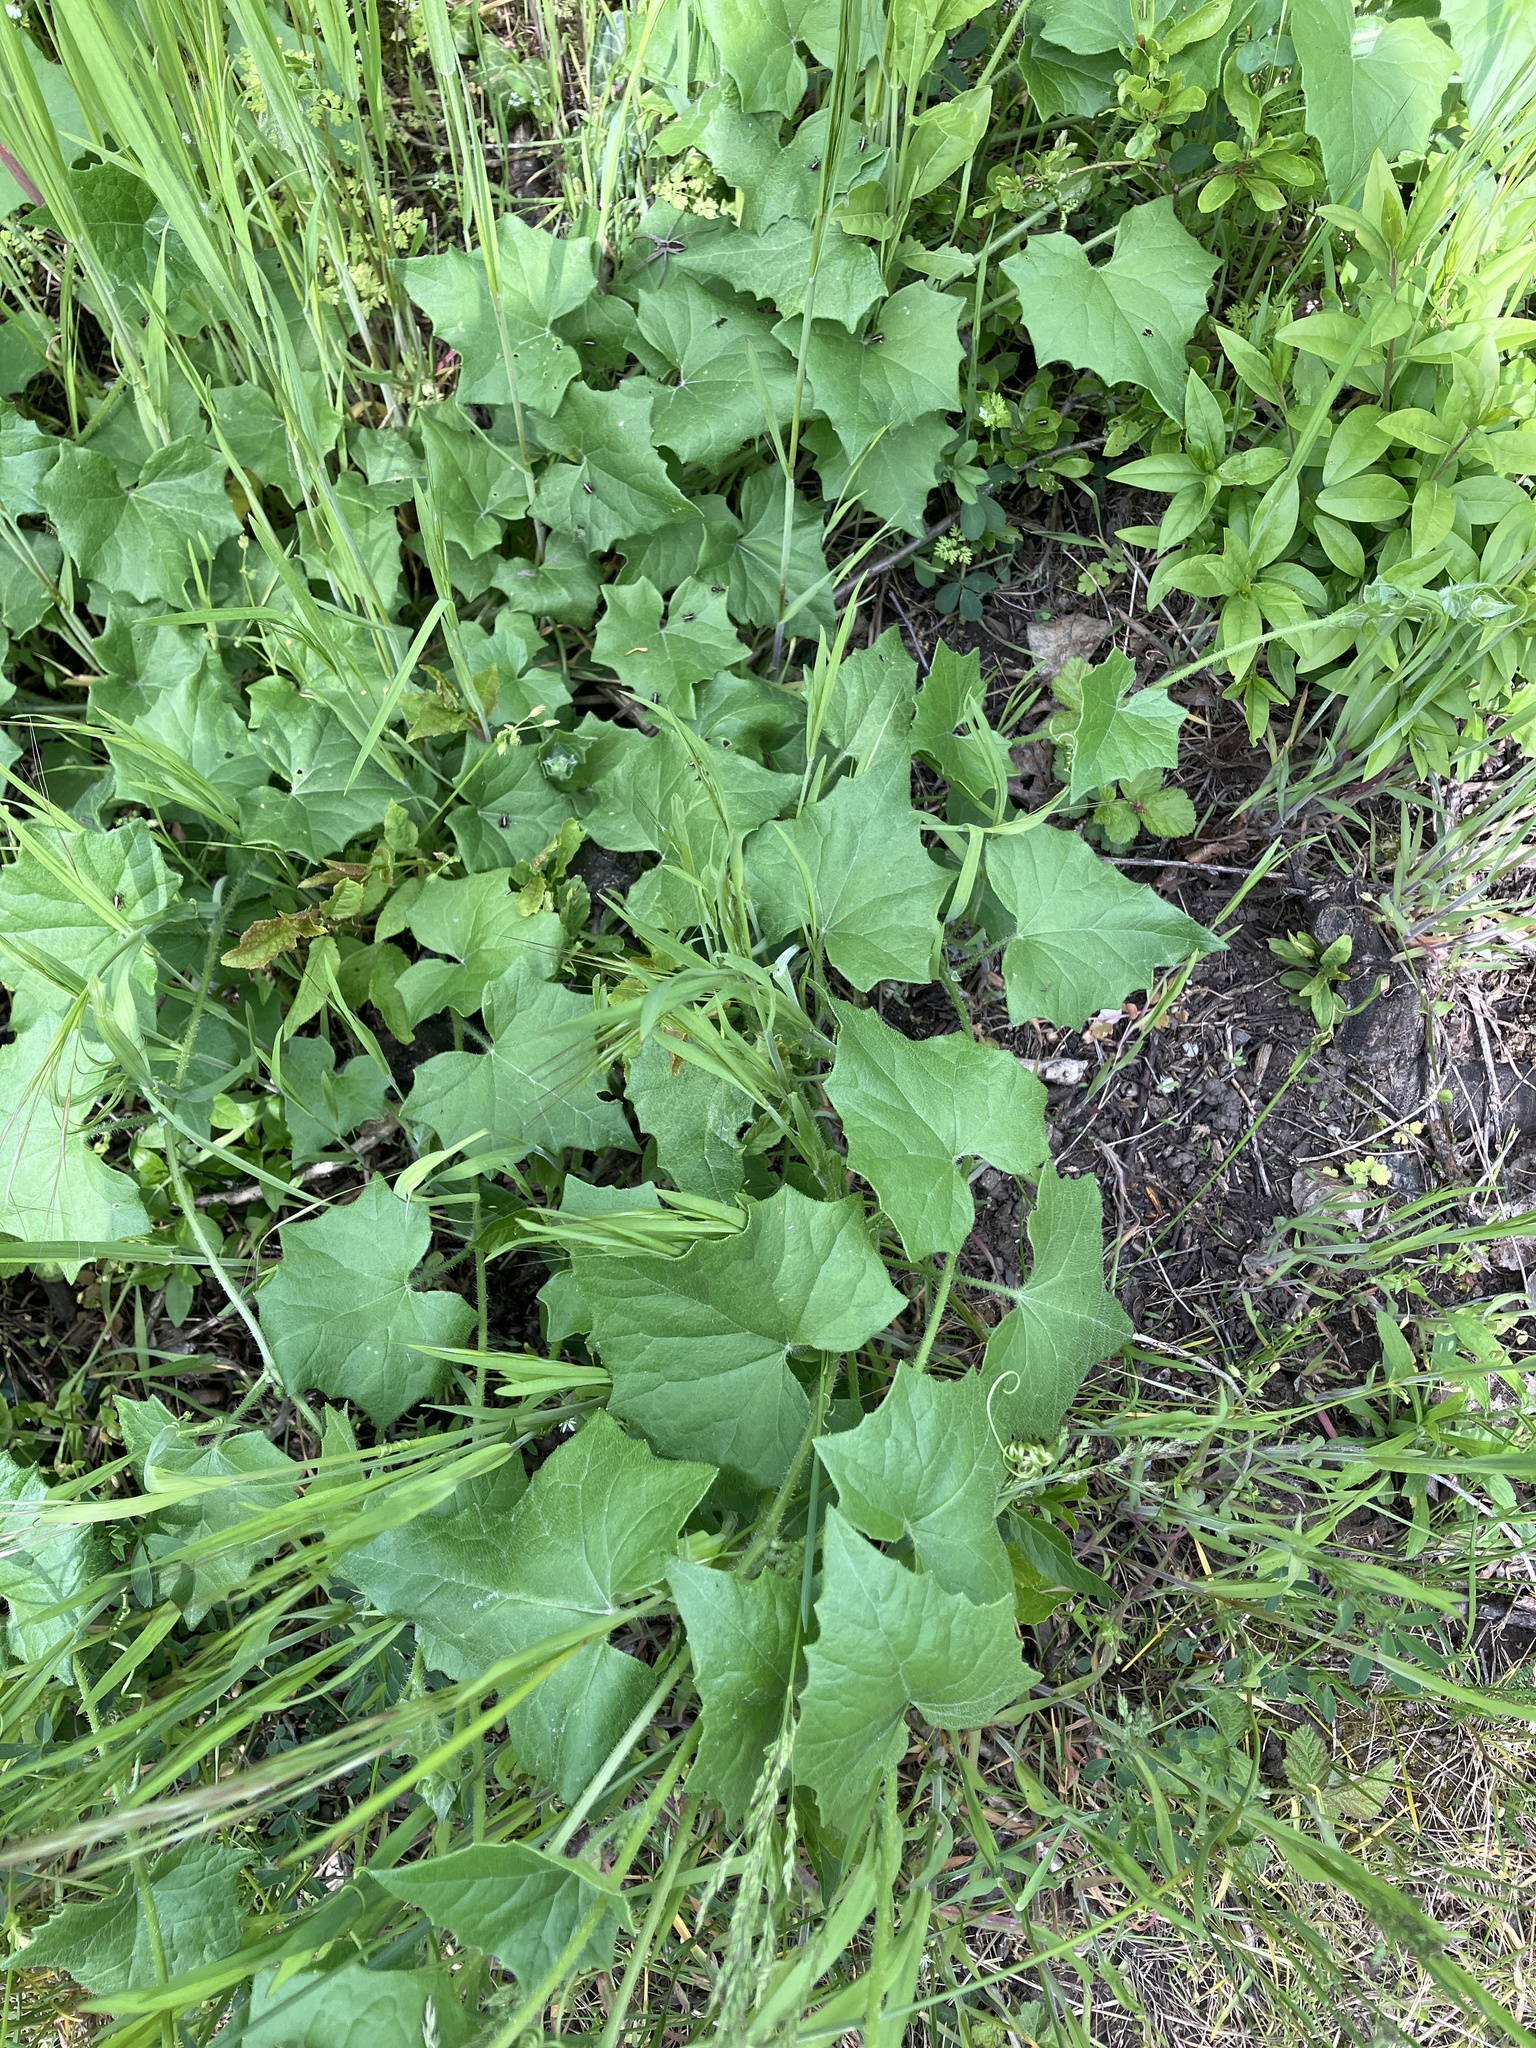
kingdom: Plantae
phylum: Tracheophyta
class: Magnoliopsida
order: Cucurbitales
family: Cucurbitaceae
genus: Bryonia
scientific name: Bryonia dioica
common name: White bryony
